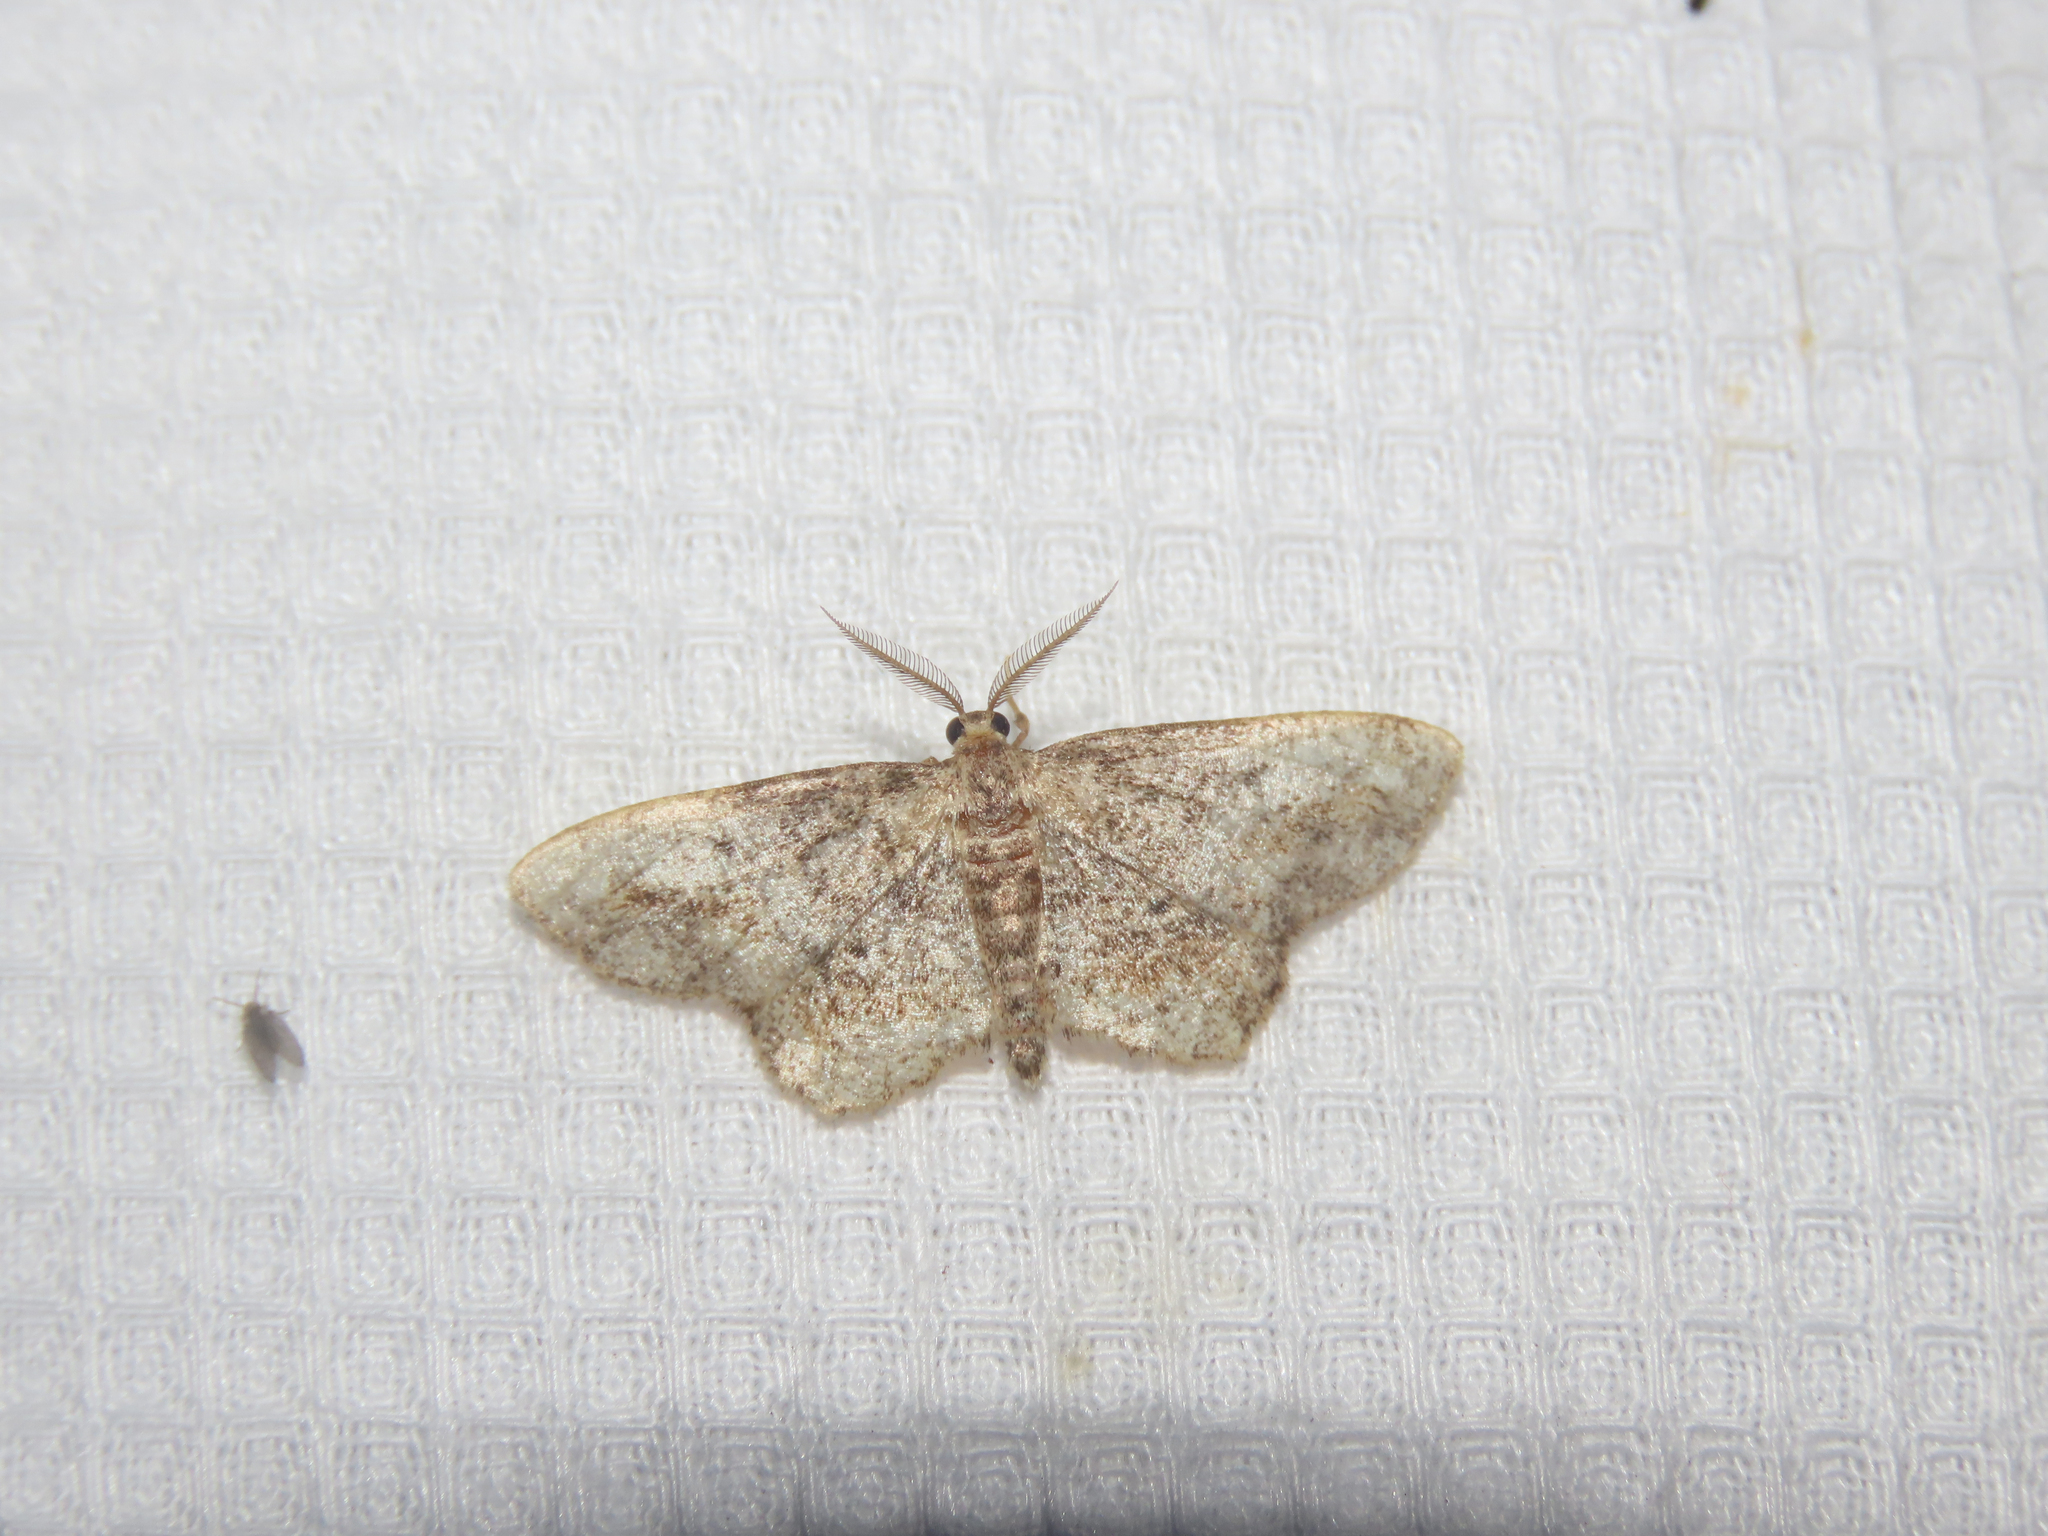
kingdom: Animalia
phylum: Arthropoda
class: Insecta
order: Lepidoptera
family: Geometridae
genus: Hypagyrtis
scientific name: Hypagyrtis unipunctata
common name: One-spotted variant
